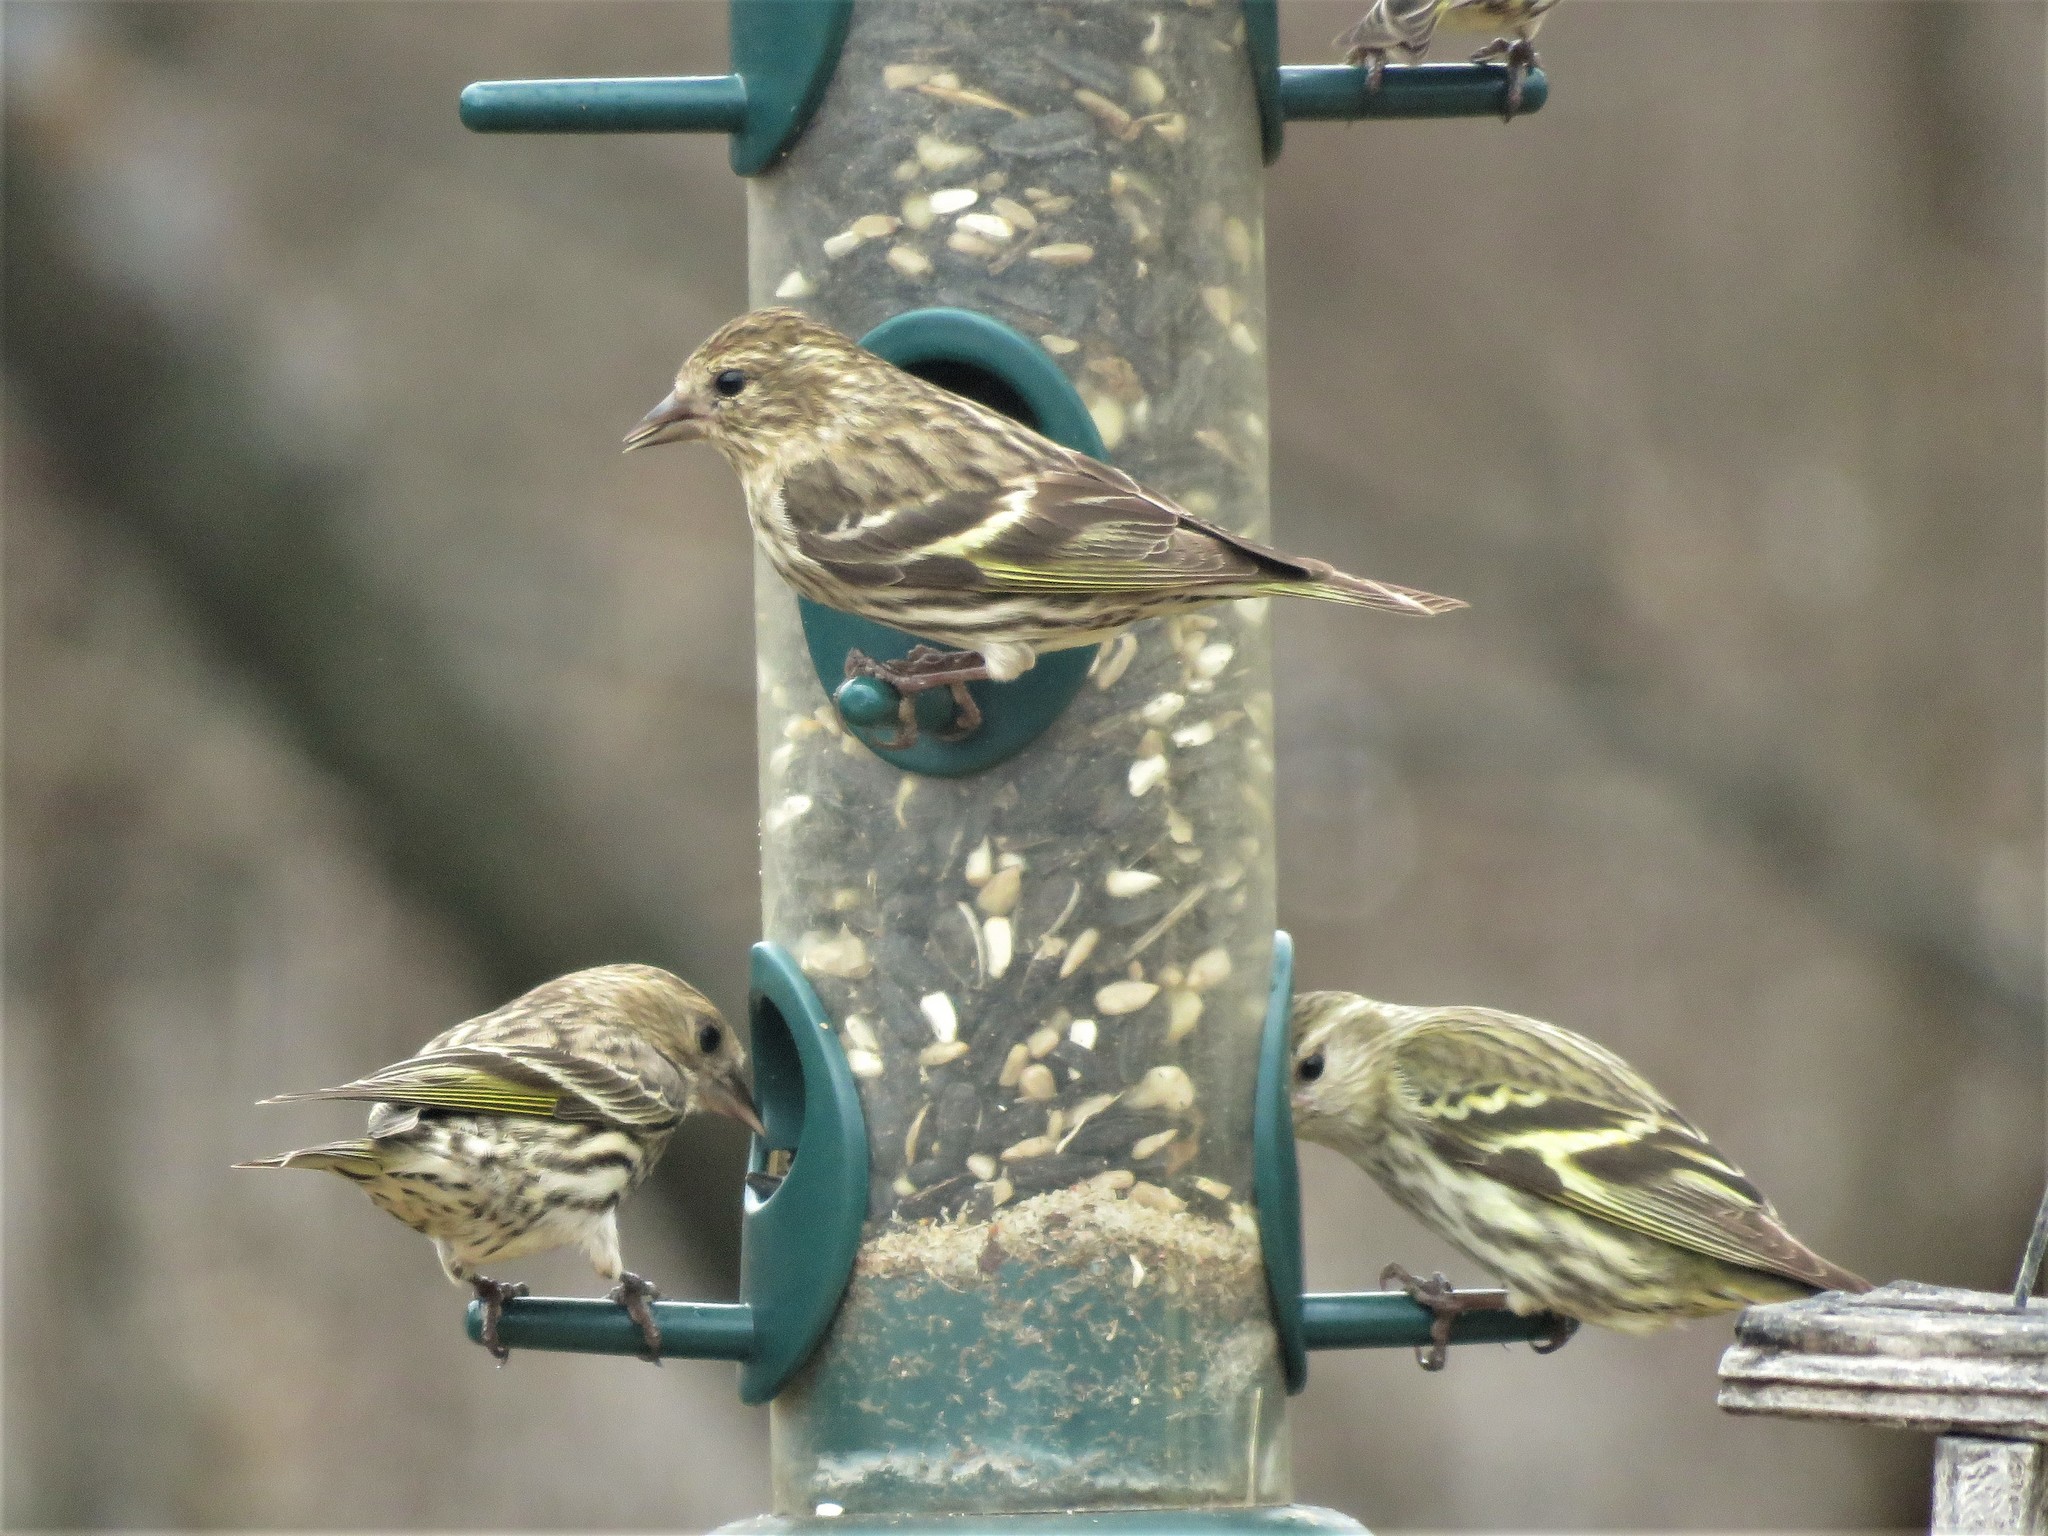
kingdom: Animalia
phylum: Chordata
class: Aves
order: Passeriformes
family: Fringillidae
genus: Spinus
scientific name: Spinus pinus
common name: Pine siskin
